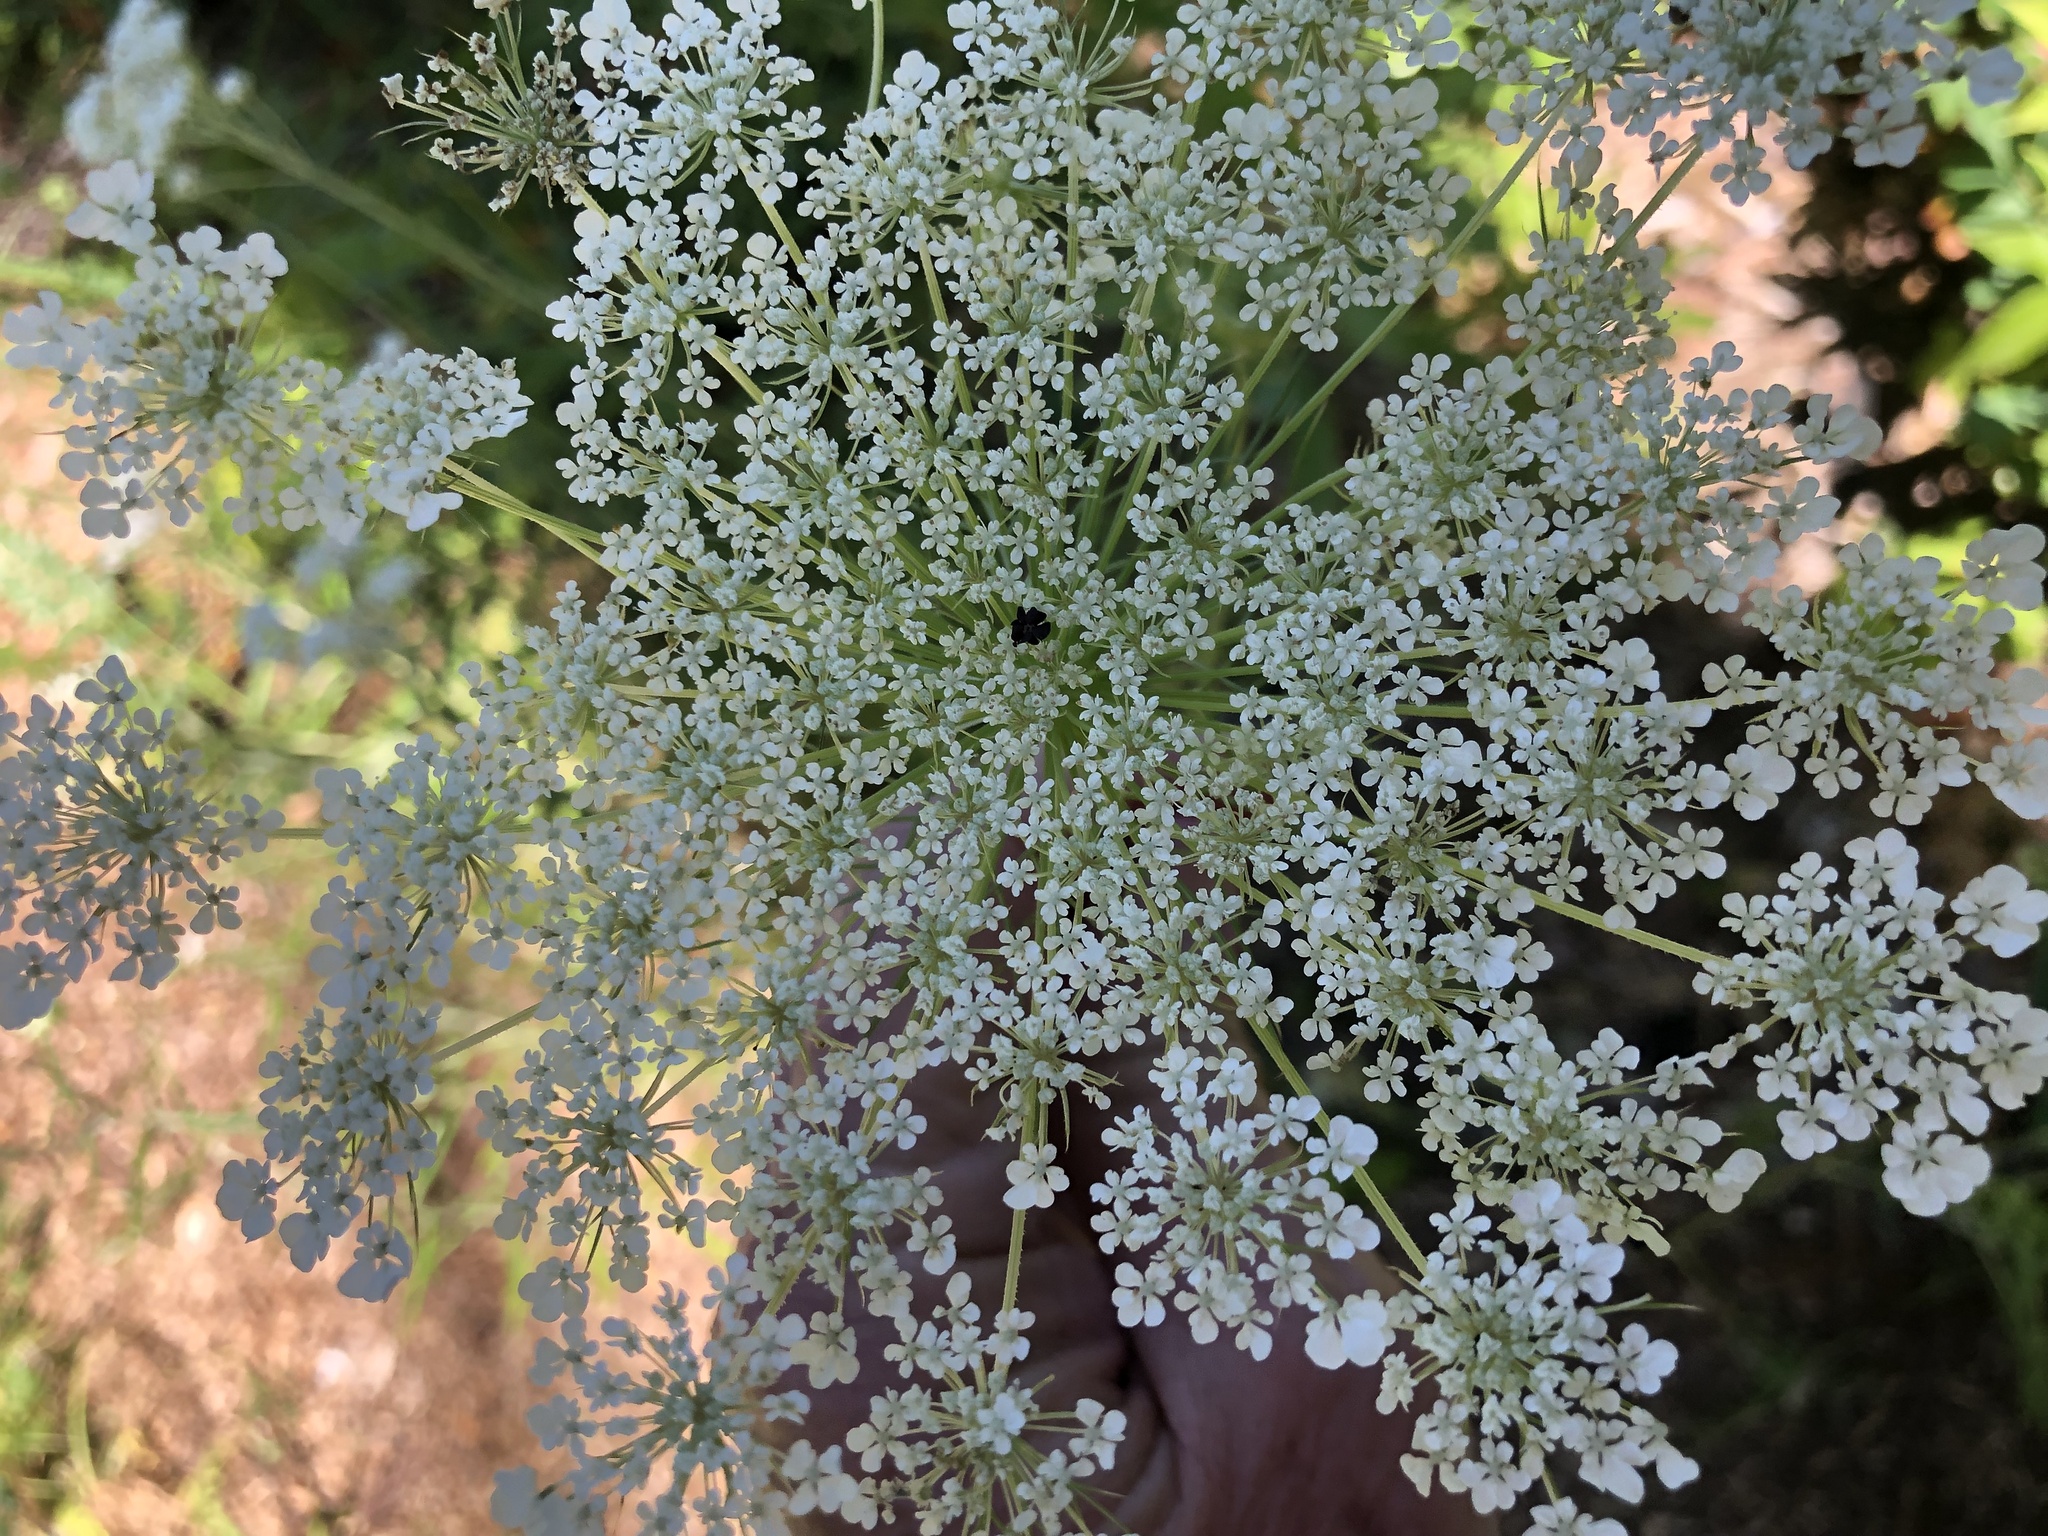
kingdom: Plantae
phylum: Tracheophyta
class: Magnoliopsida
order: Apiales
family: Apiaceae
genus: Daucus
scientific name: Daucus carota
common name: Wild carrot
